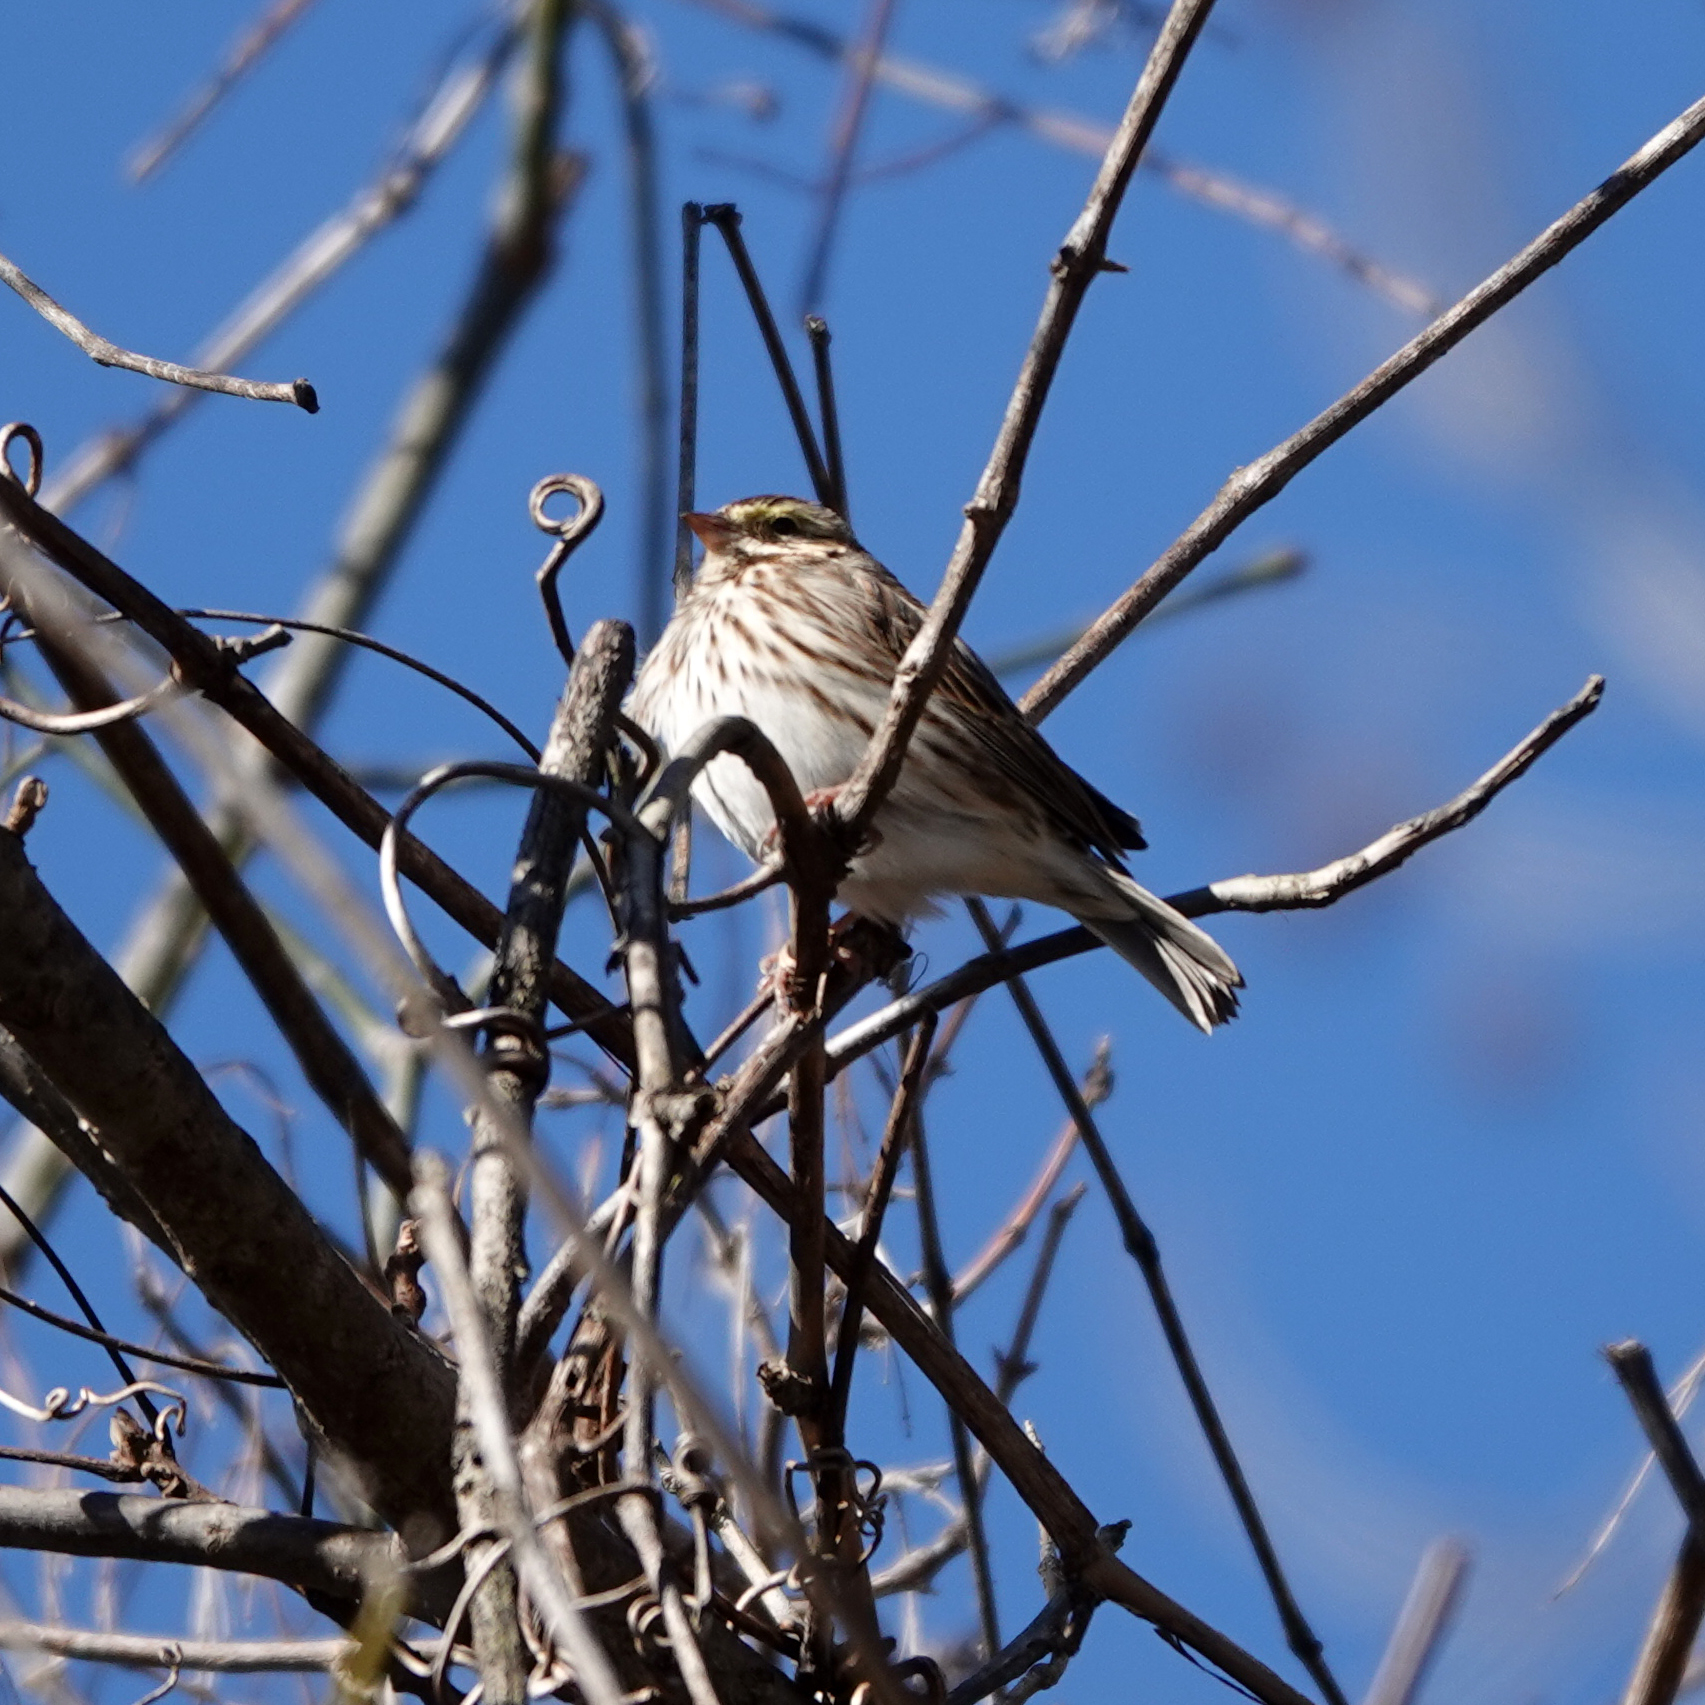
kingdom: Animalia
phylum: Chordata
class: Aves
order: Passeriformes
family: Passerellidae
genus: Passerculus
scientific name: Passerculus sandwichensis
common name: Savannah sparrow
